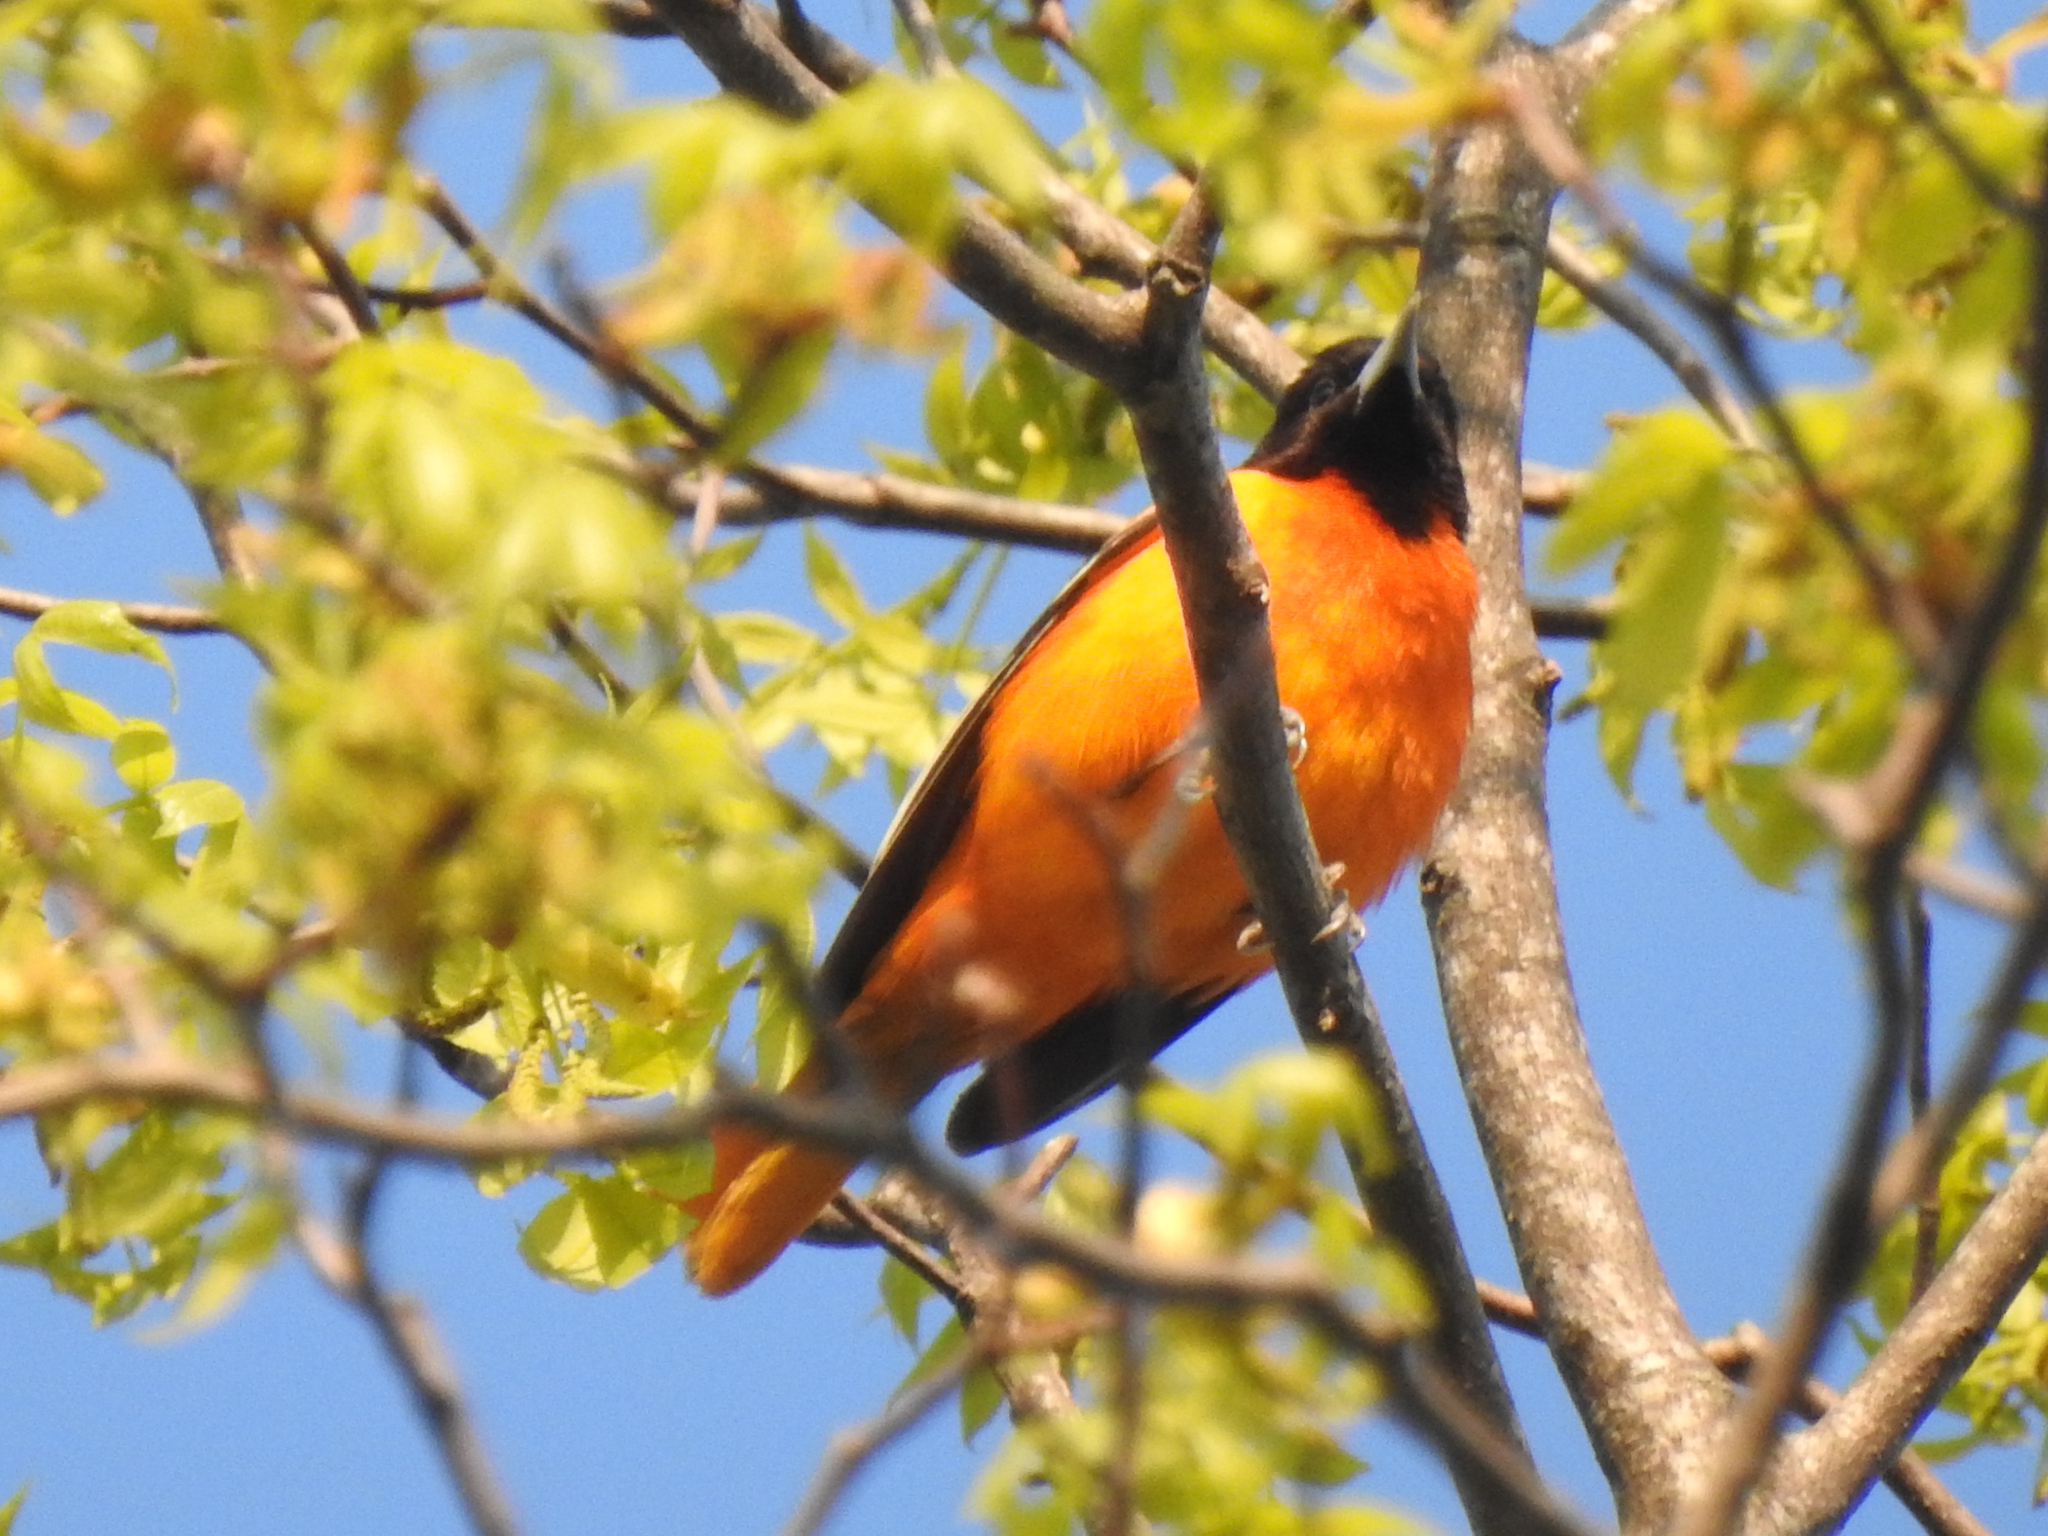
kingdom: Animalia
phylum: Chordata
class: Aves
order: Passeriformes
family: Icteridae
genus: Icterus
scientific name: Icterus galbula
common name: Baltimore oriole
